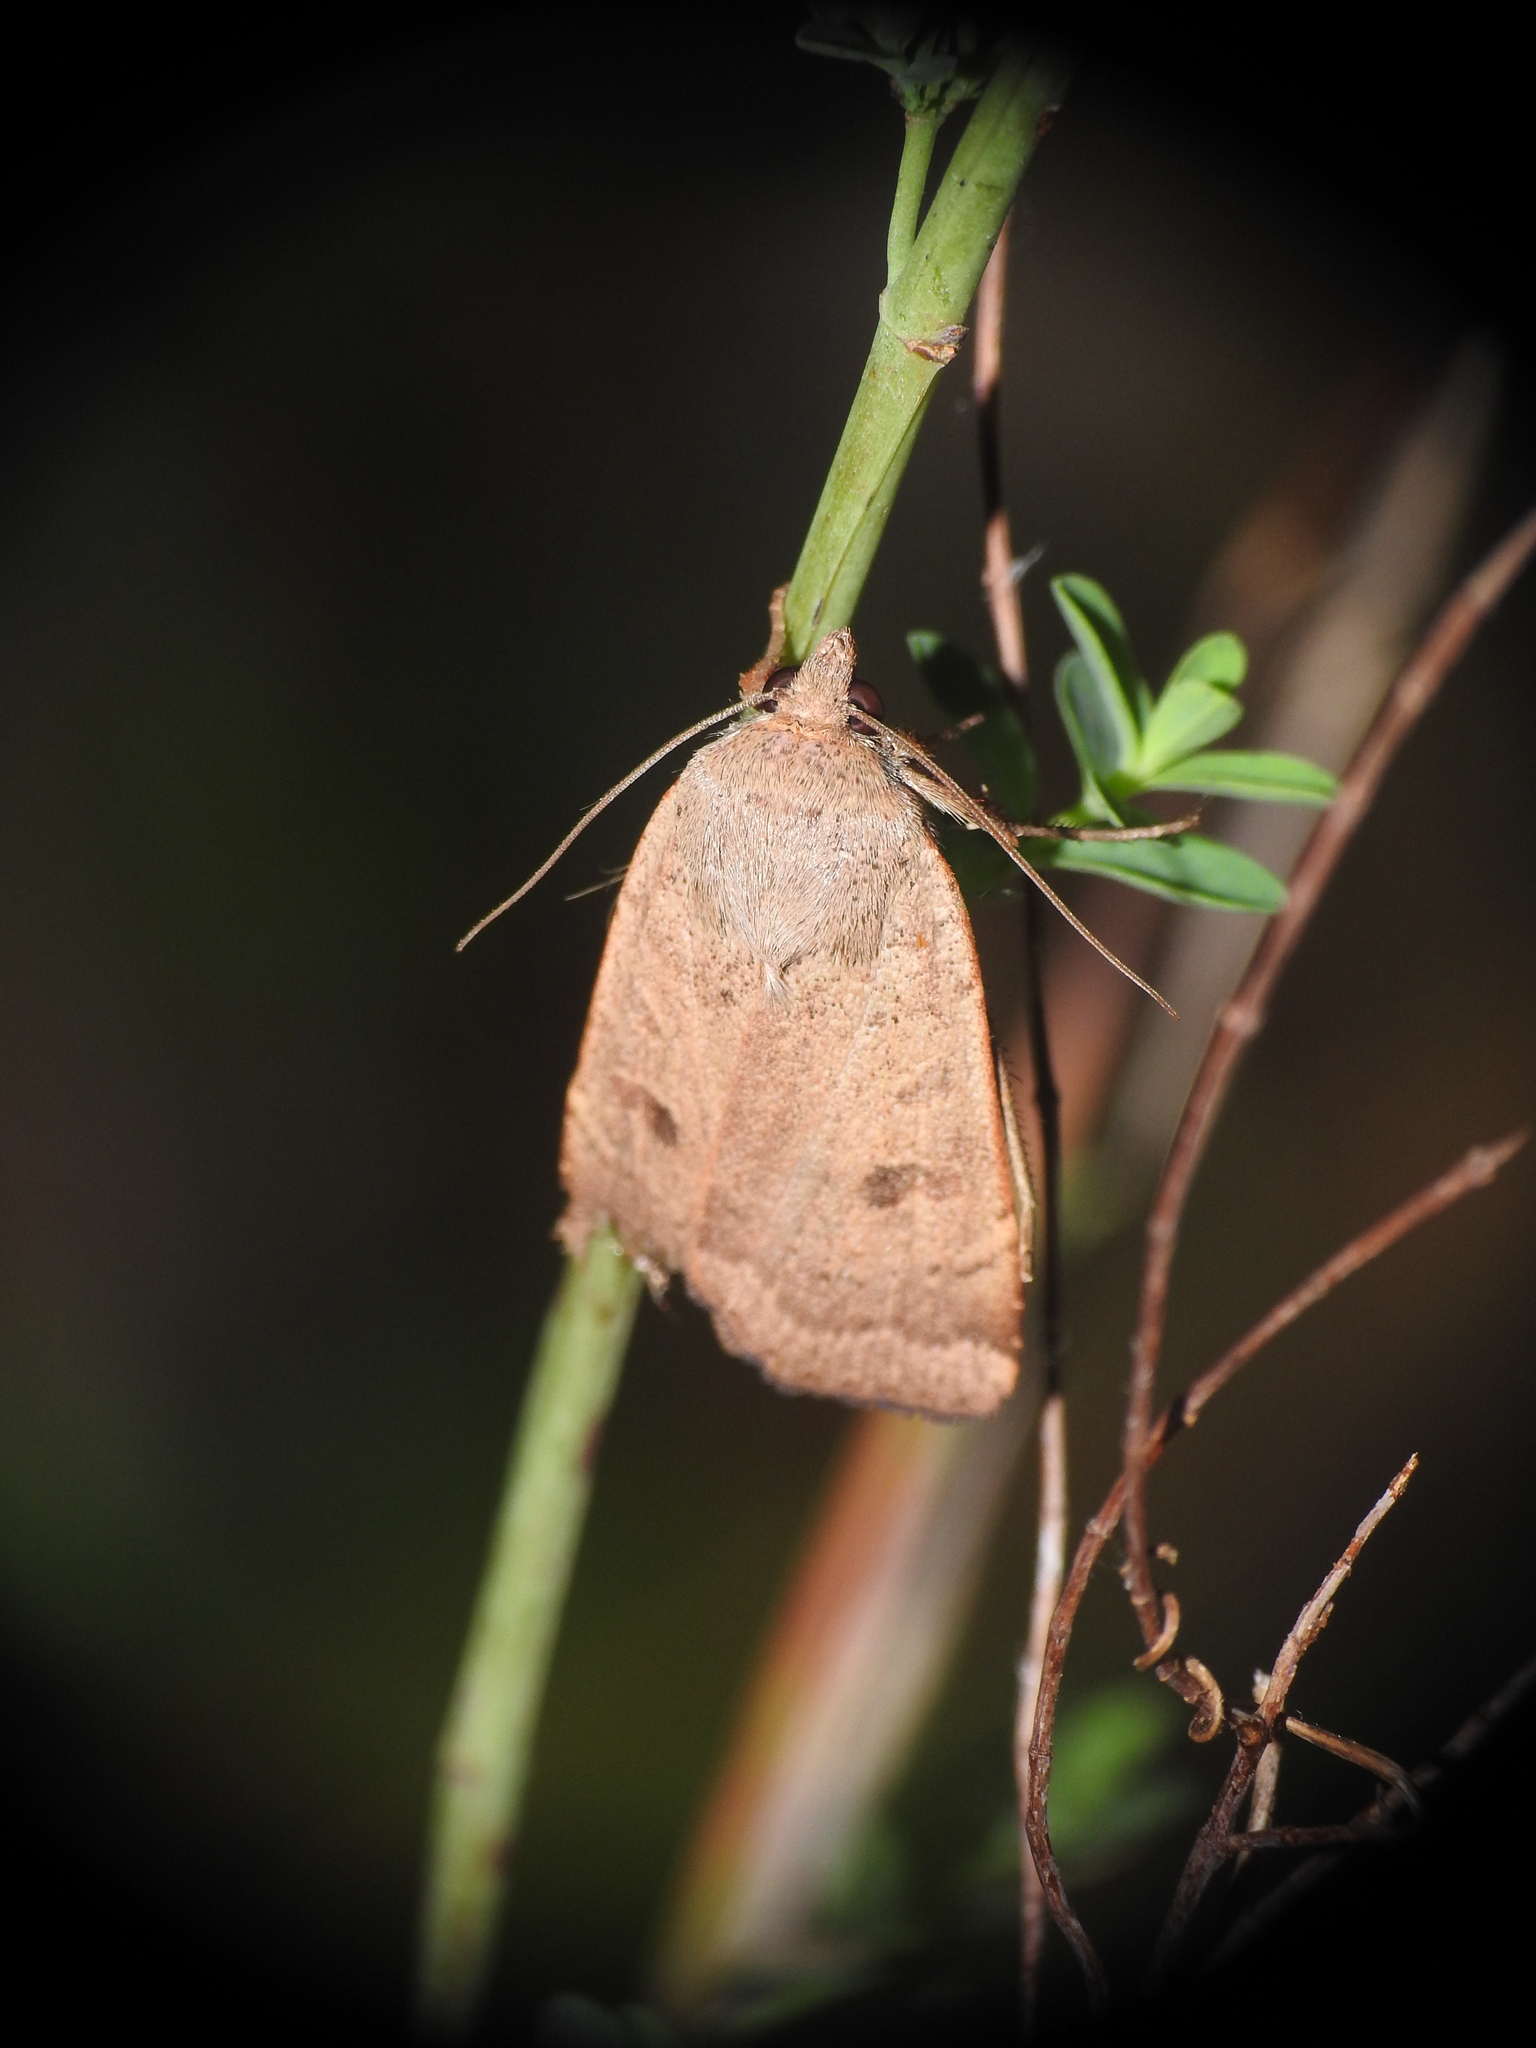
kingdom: Animalia
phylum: Arthropoda
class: Insecta
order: Lepidoptera
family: Noctuidae
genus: Noctua
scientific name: Noctua comes
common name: Lesser yellow underwing
